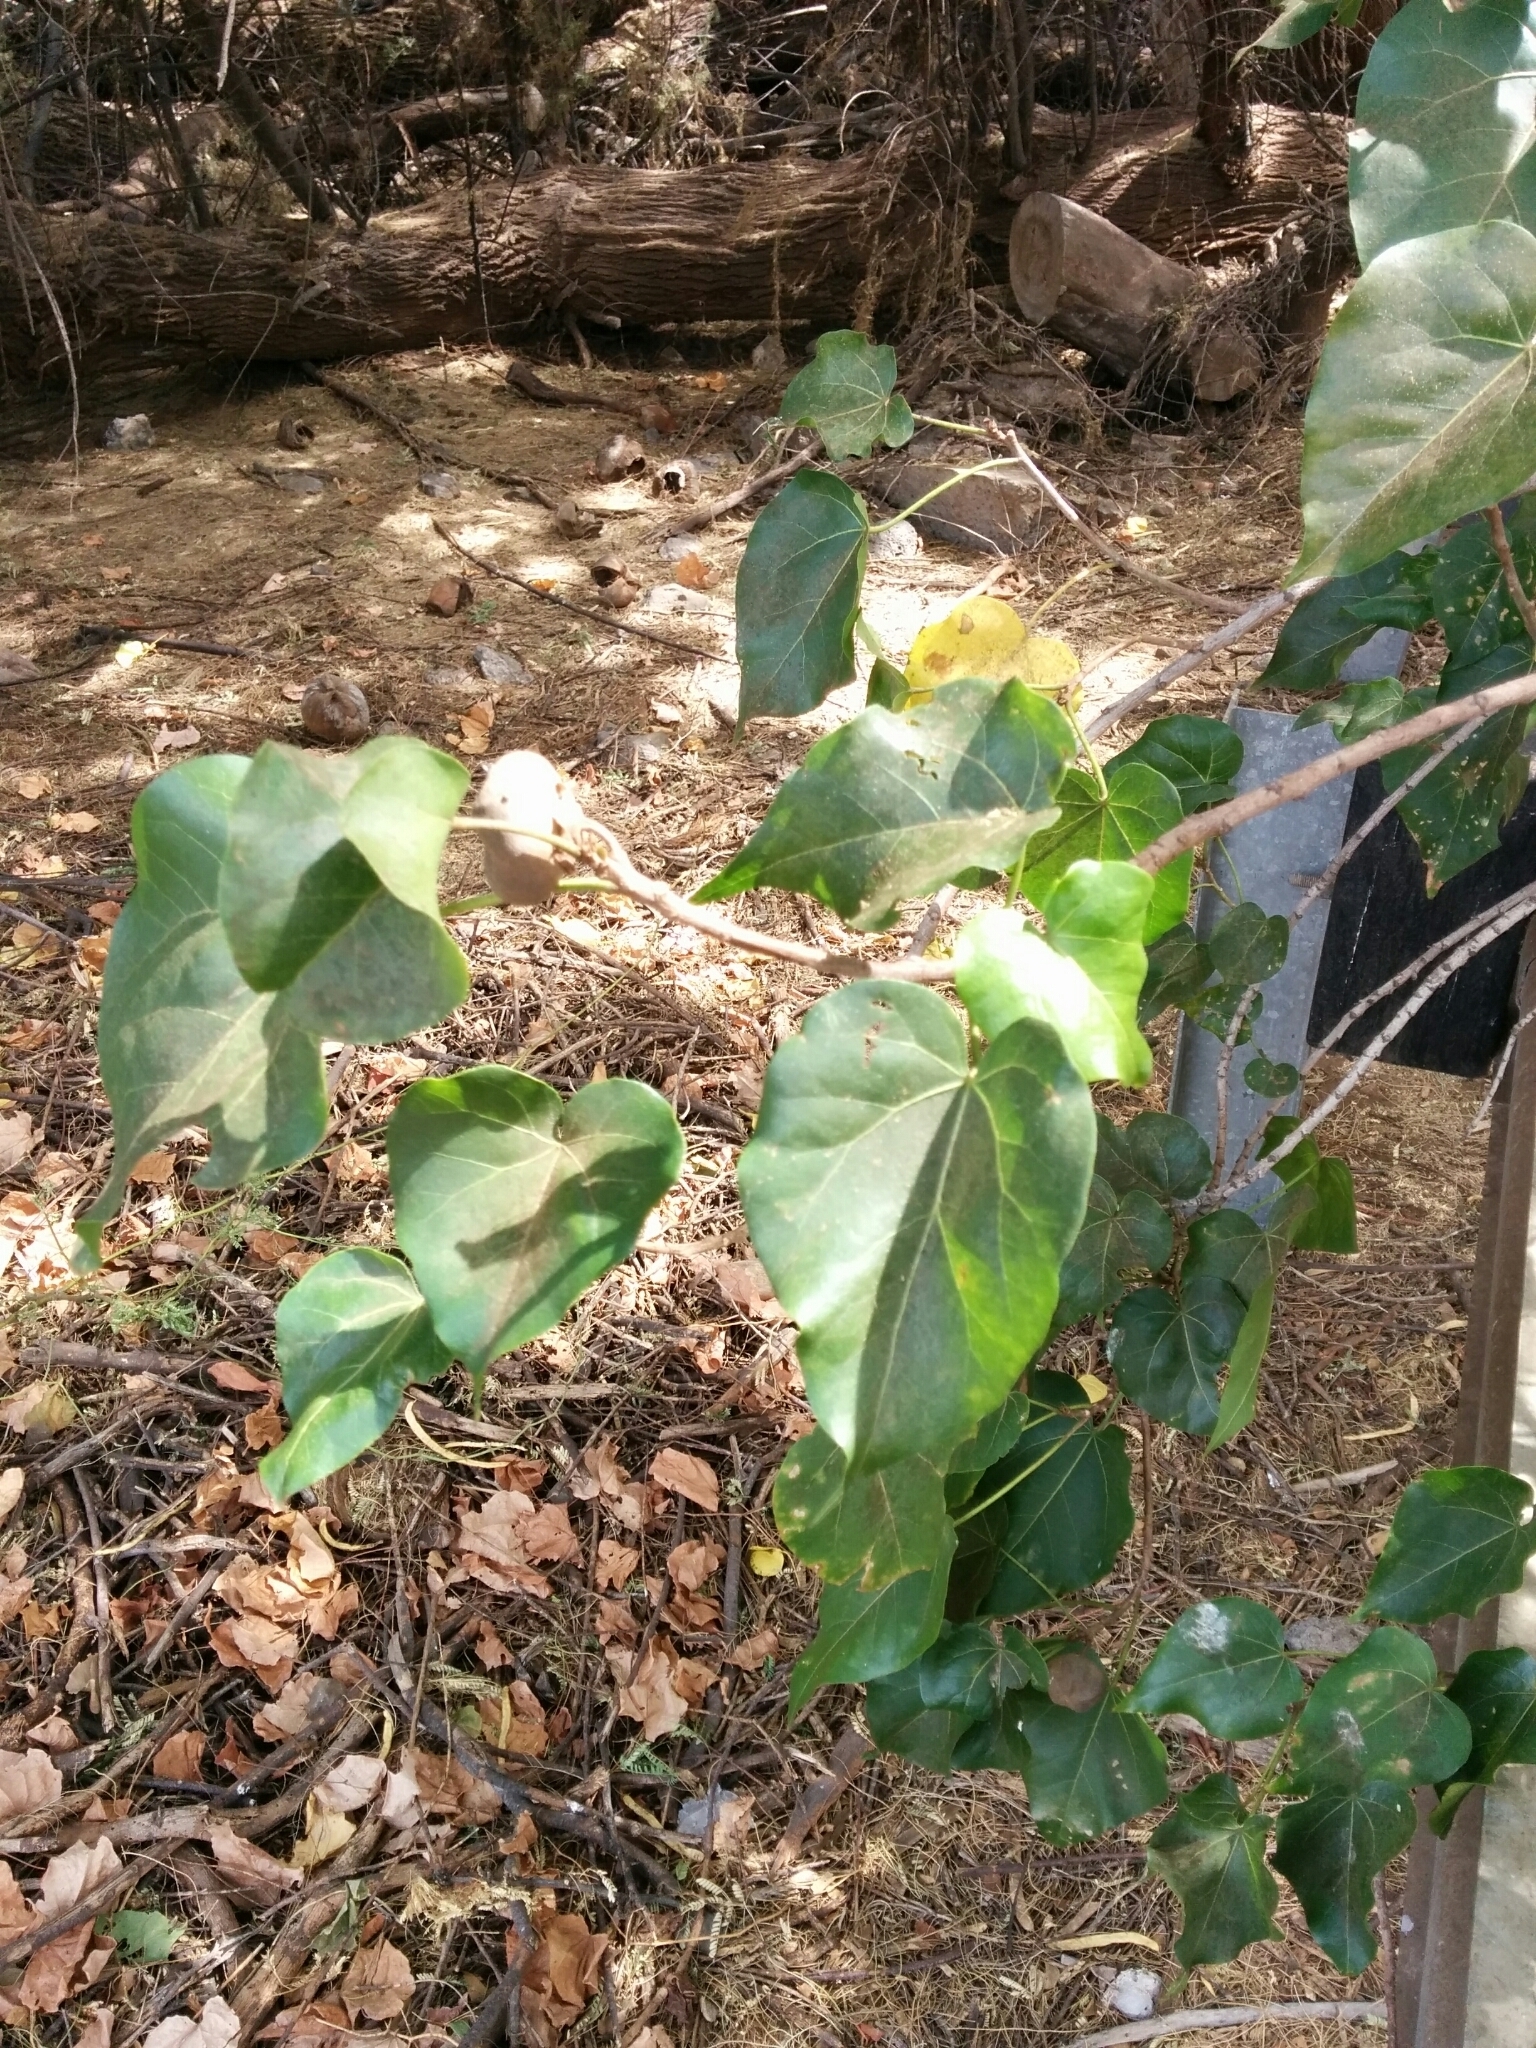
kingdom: Plantae
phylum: Tracheophyta
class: Magnoliopsida
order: Malvales
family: Malvaceae
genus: Thespesia
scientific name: Thespesia populnea
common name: Seaside mahoe
